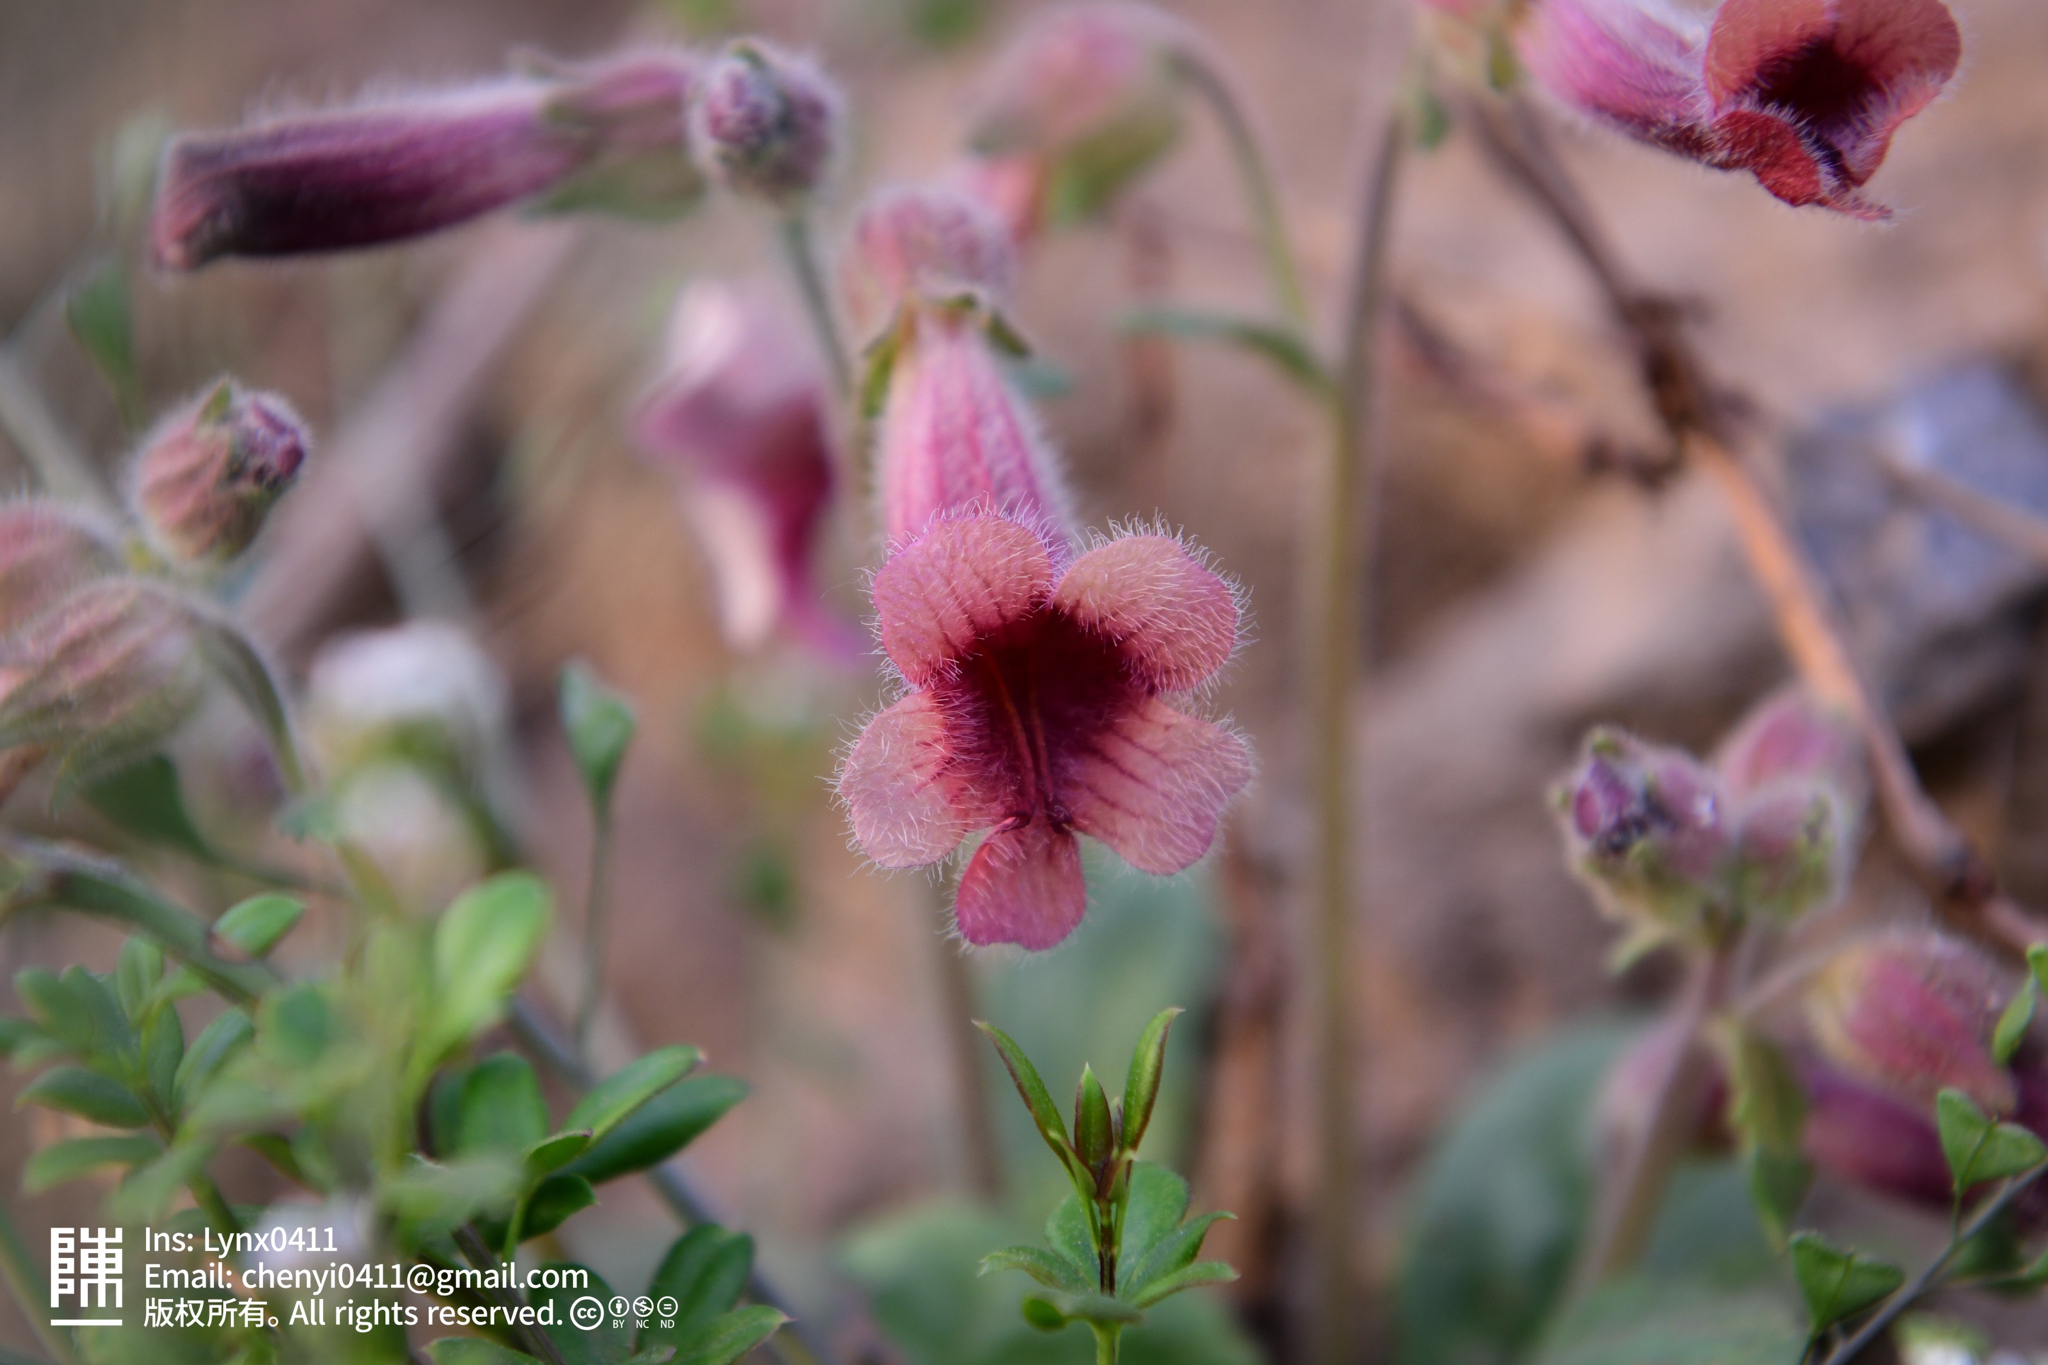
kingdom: Plantae
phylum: Tracheophyta
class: Magnoliopsida
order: Lamiales
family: Rehmanniaceae
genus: Rehmannia
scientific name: Rehmannia glutinosa
